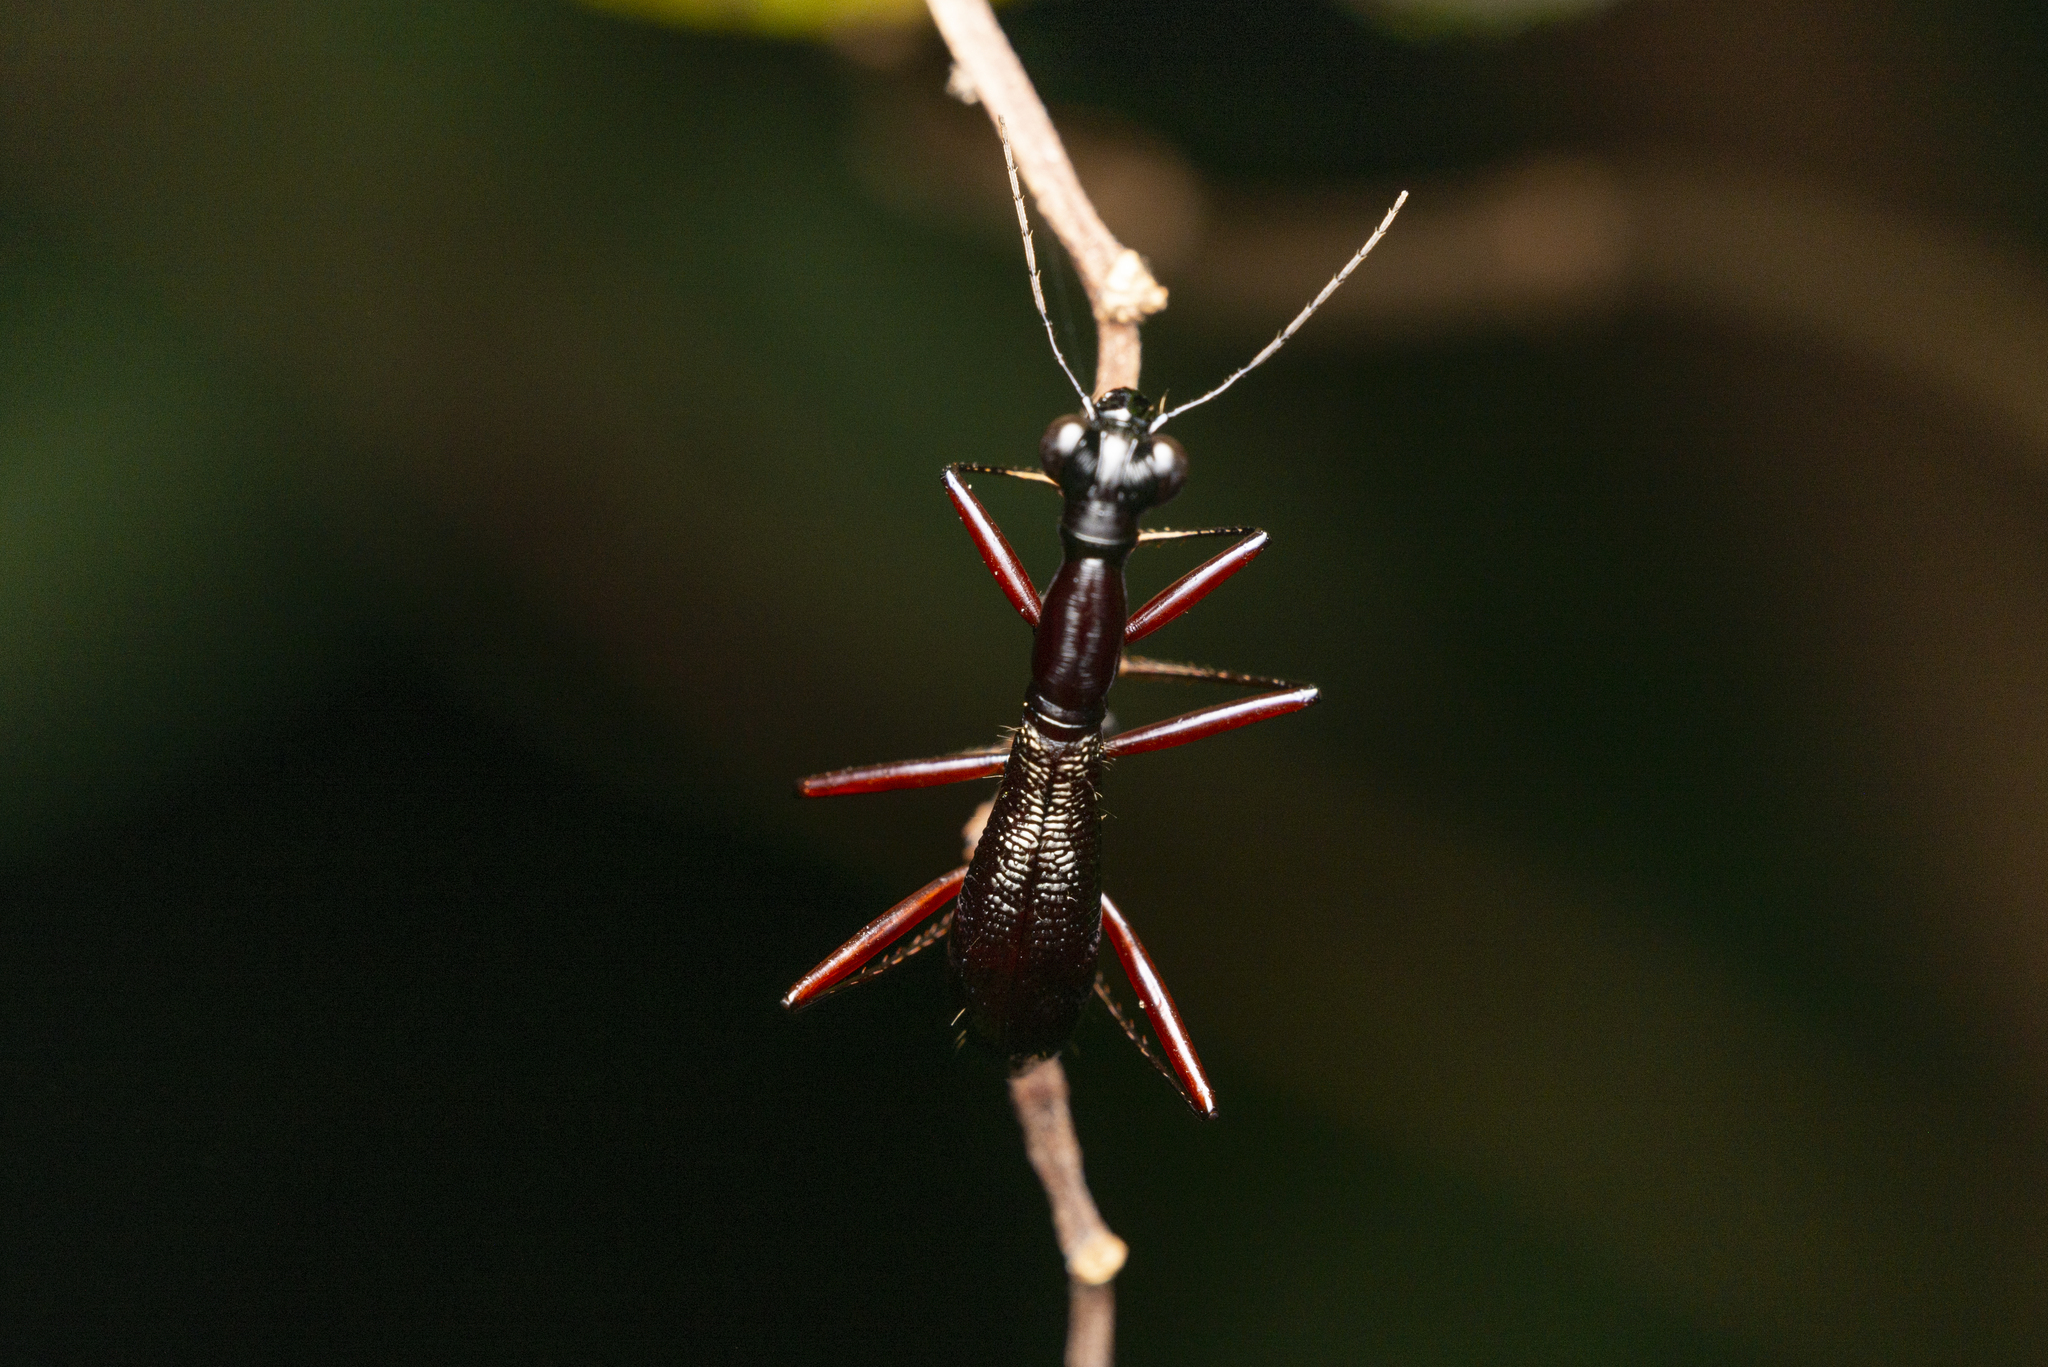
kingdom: Animalia
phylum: Arthropoda
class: Insecta
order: Coleoptera
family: Carabidae
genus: Tricondyla
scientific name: Tricondyla pulchripes
